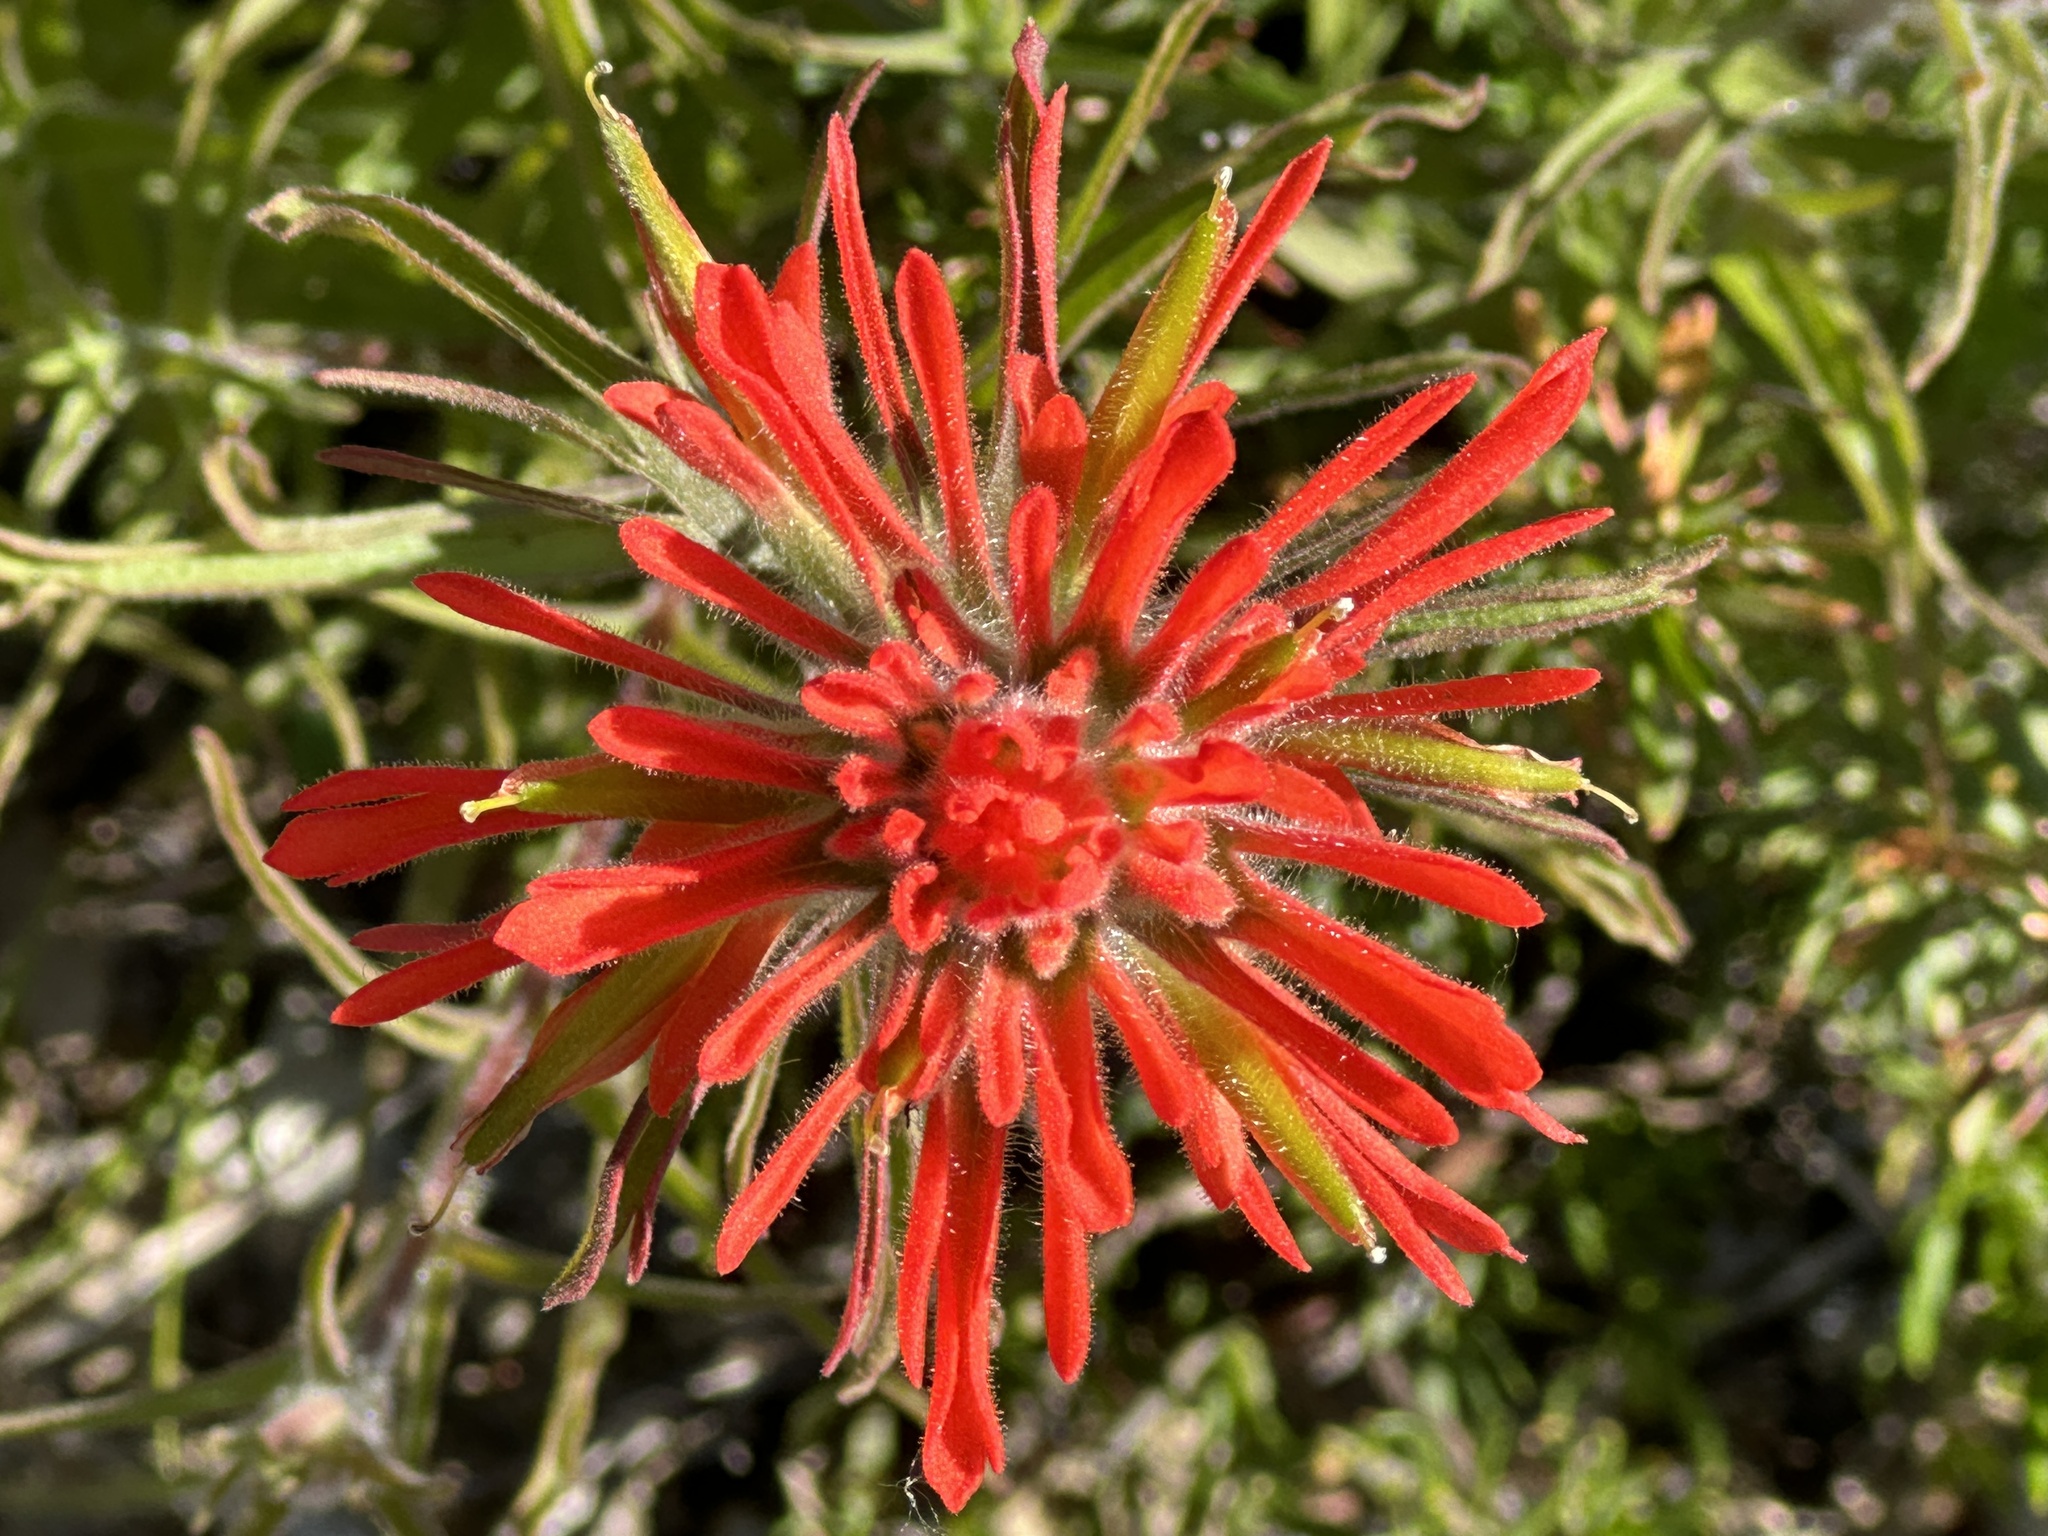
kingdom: Plantae
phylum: Tracheophyta
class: Magnoliopsida
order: Lamiales
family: Orobanchaceae
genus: Castilleja
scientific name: Castilleja affinis
